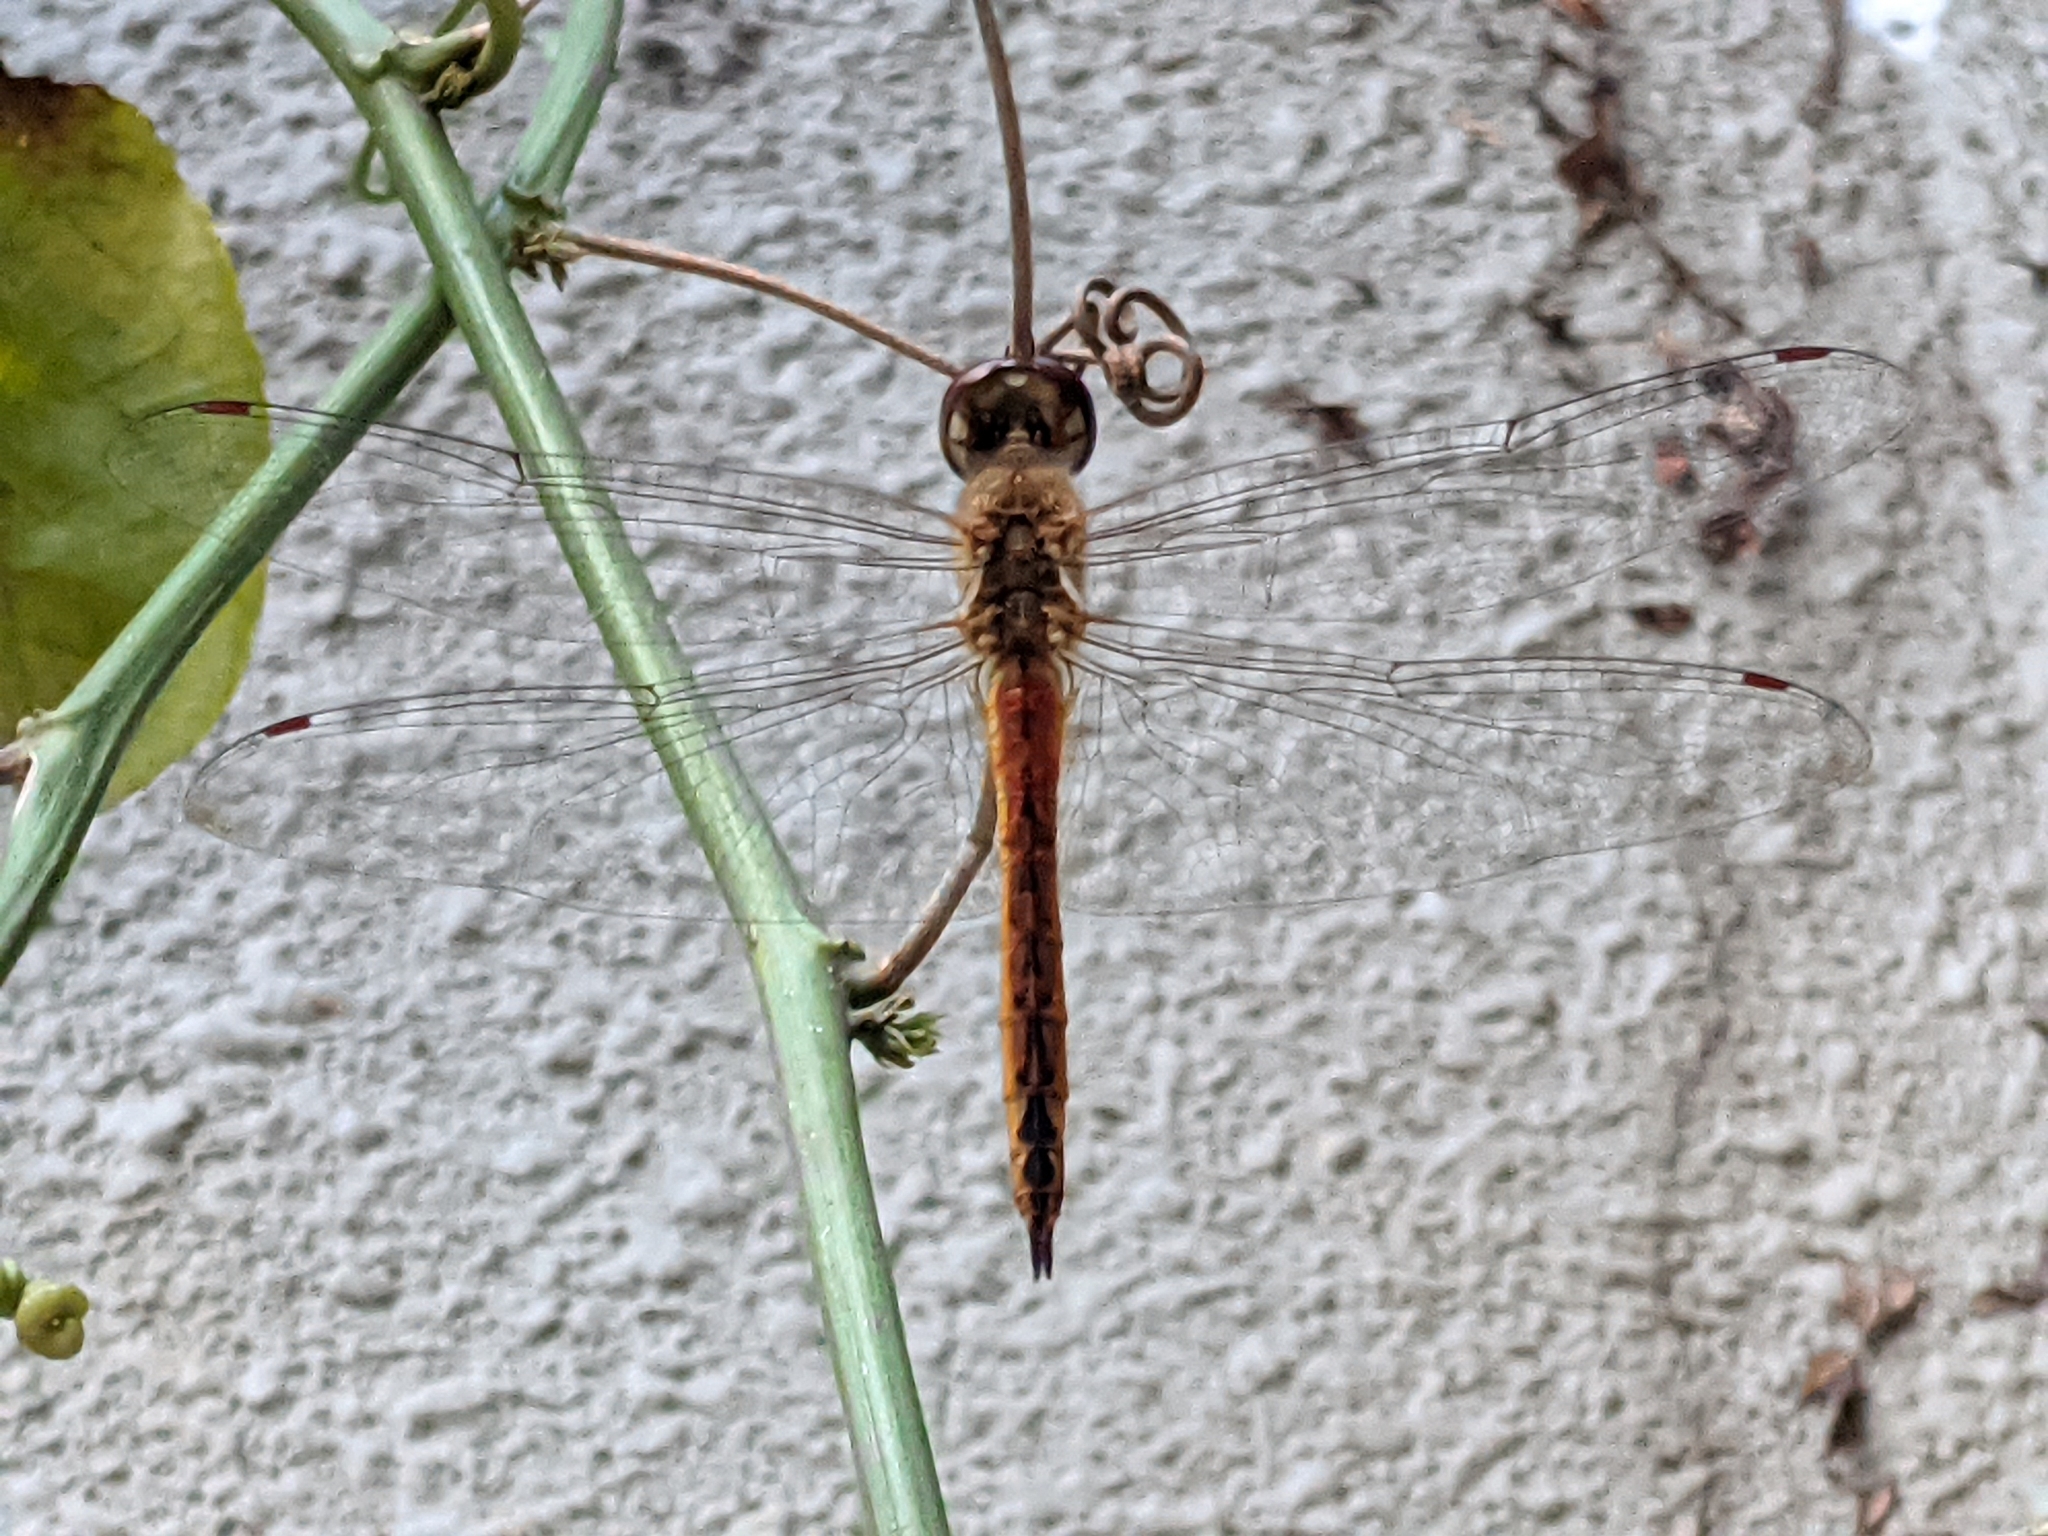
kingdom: Animalia
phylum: Arthropoda
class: Insecta
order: Odonata
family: Libellulidae
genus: Pantala
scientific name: Pantala flavescens
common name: Wandering glider
